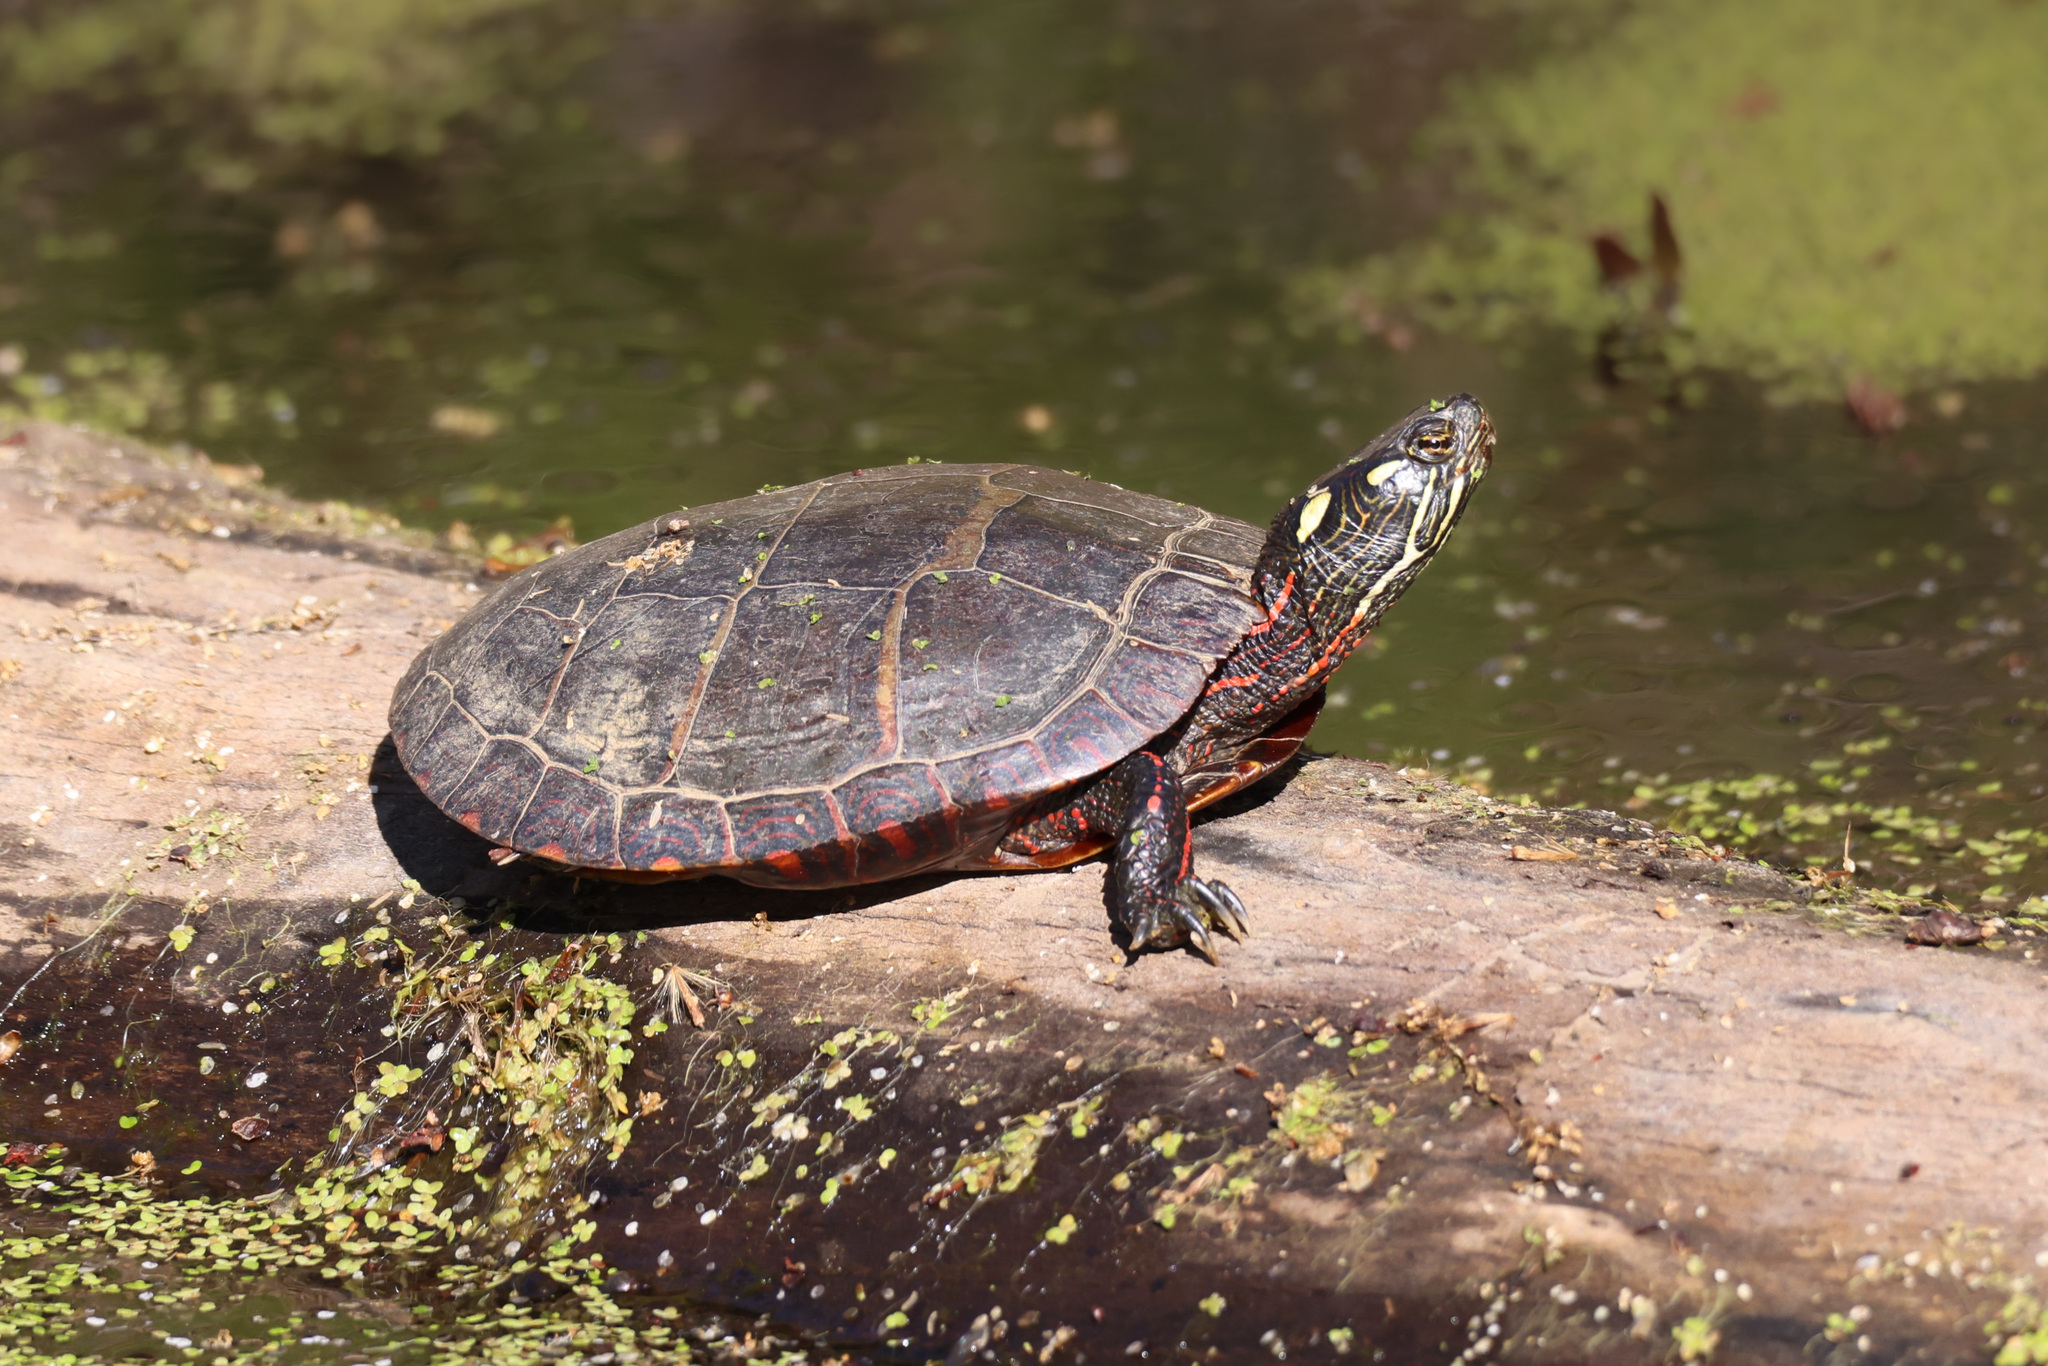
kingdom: Animalia
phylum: Chordata
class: Testudines
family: Emydidae
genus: Chrysemys
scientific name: Chrysemys picta
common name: Painted turtle
